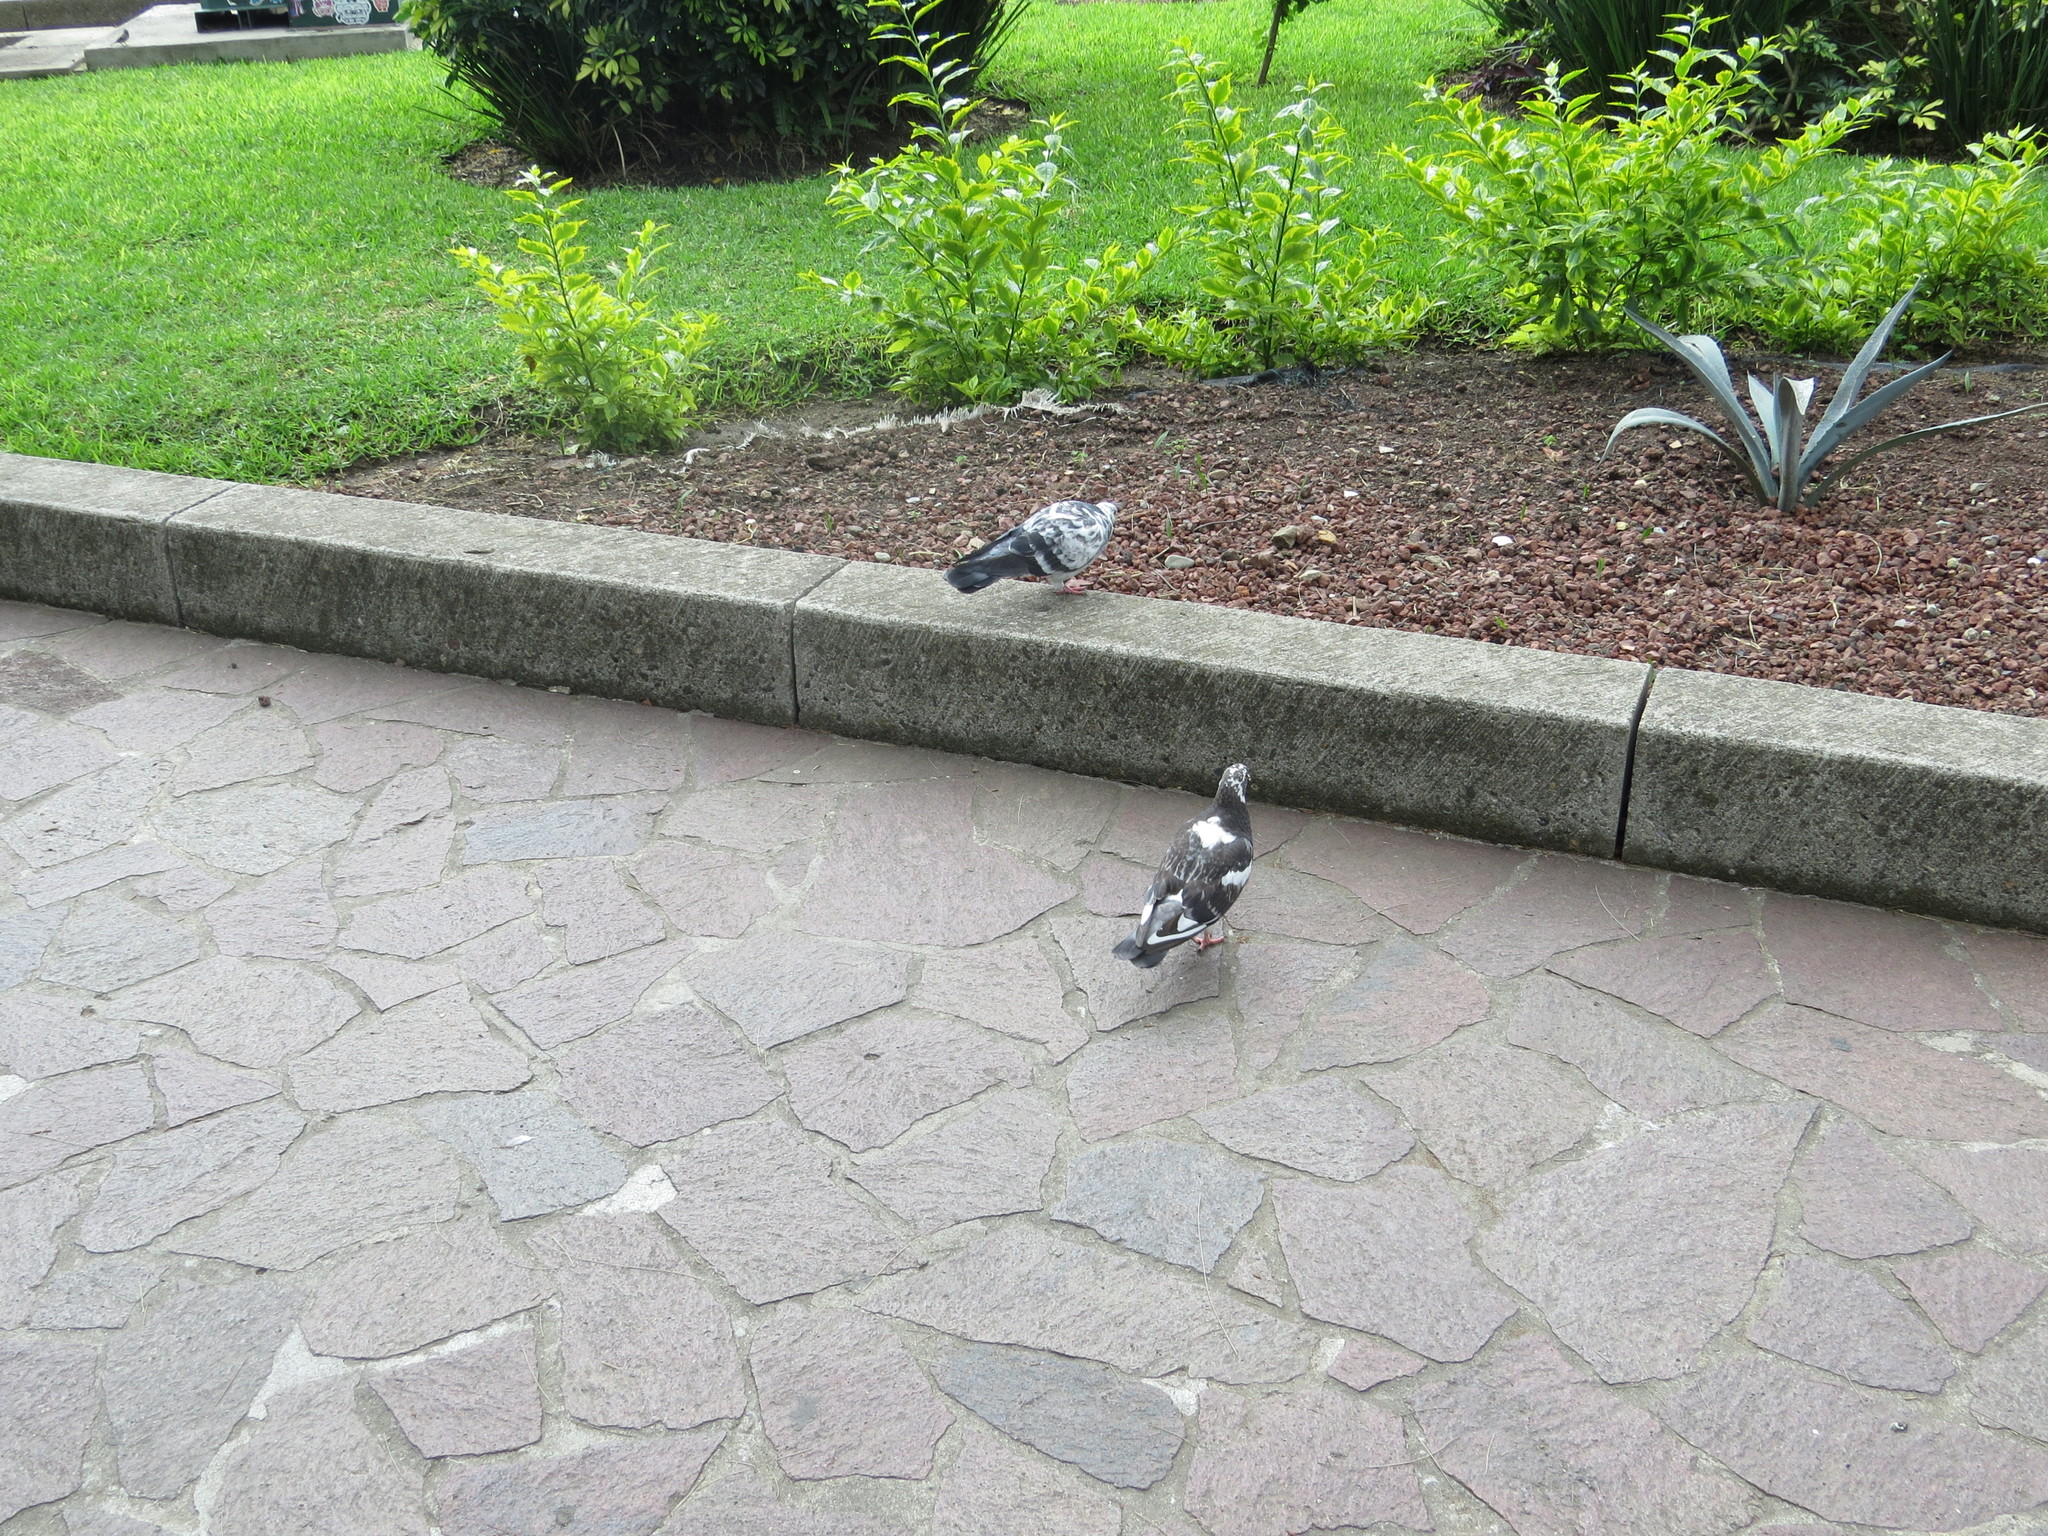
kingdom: Animalia
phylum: Chordata
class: Aves
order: Columbiformes
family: Columbidae
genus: Columba
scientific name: Columba livia
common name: Rock pigeon
